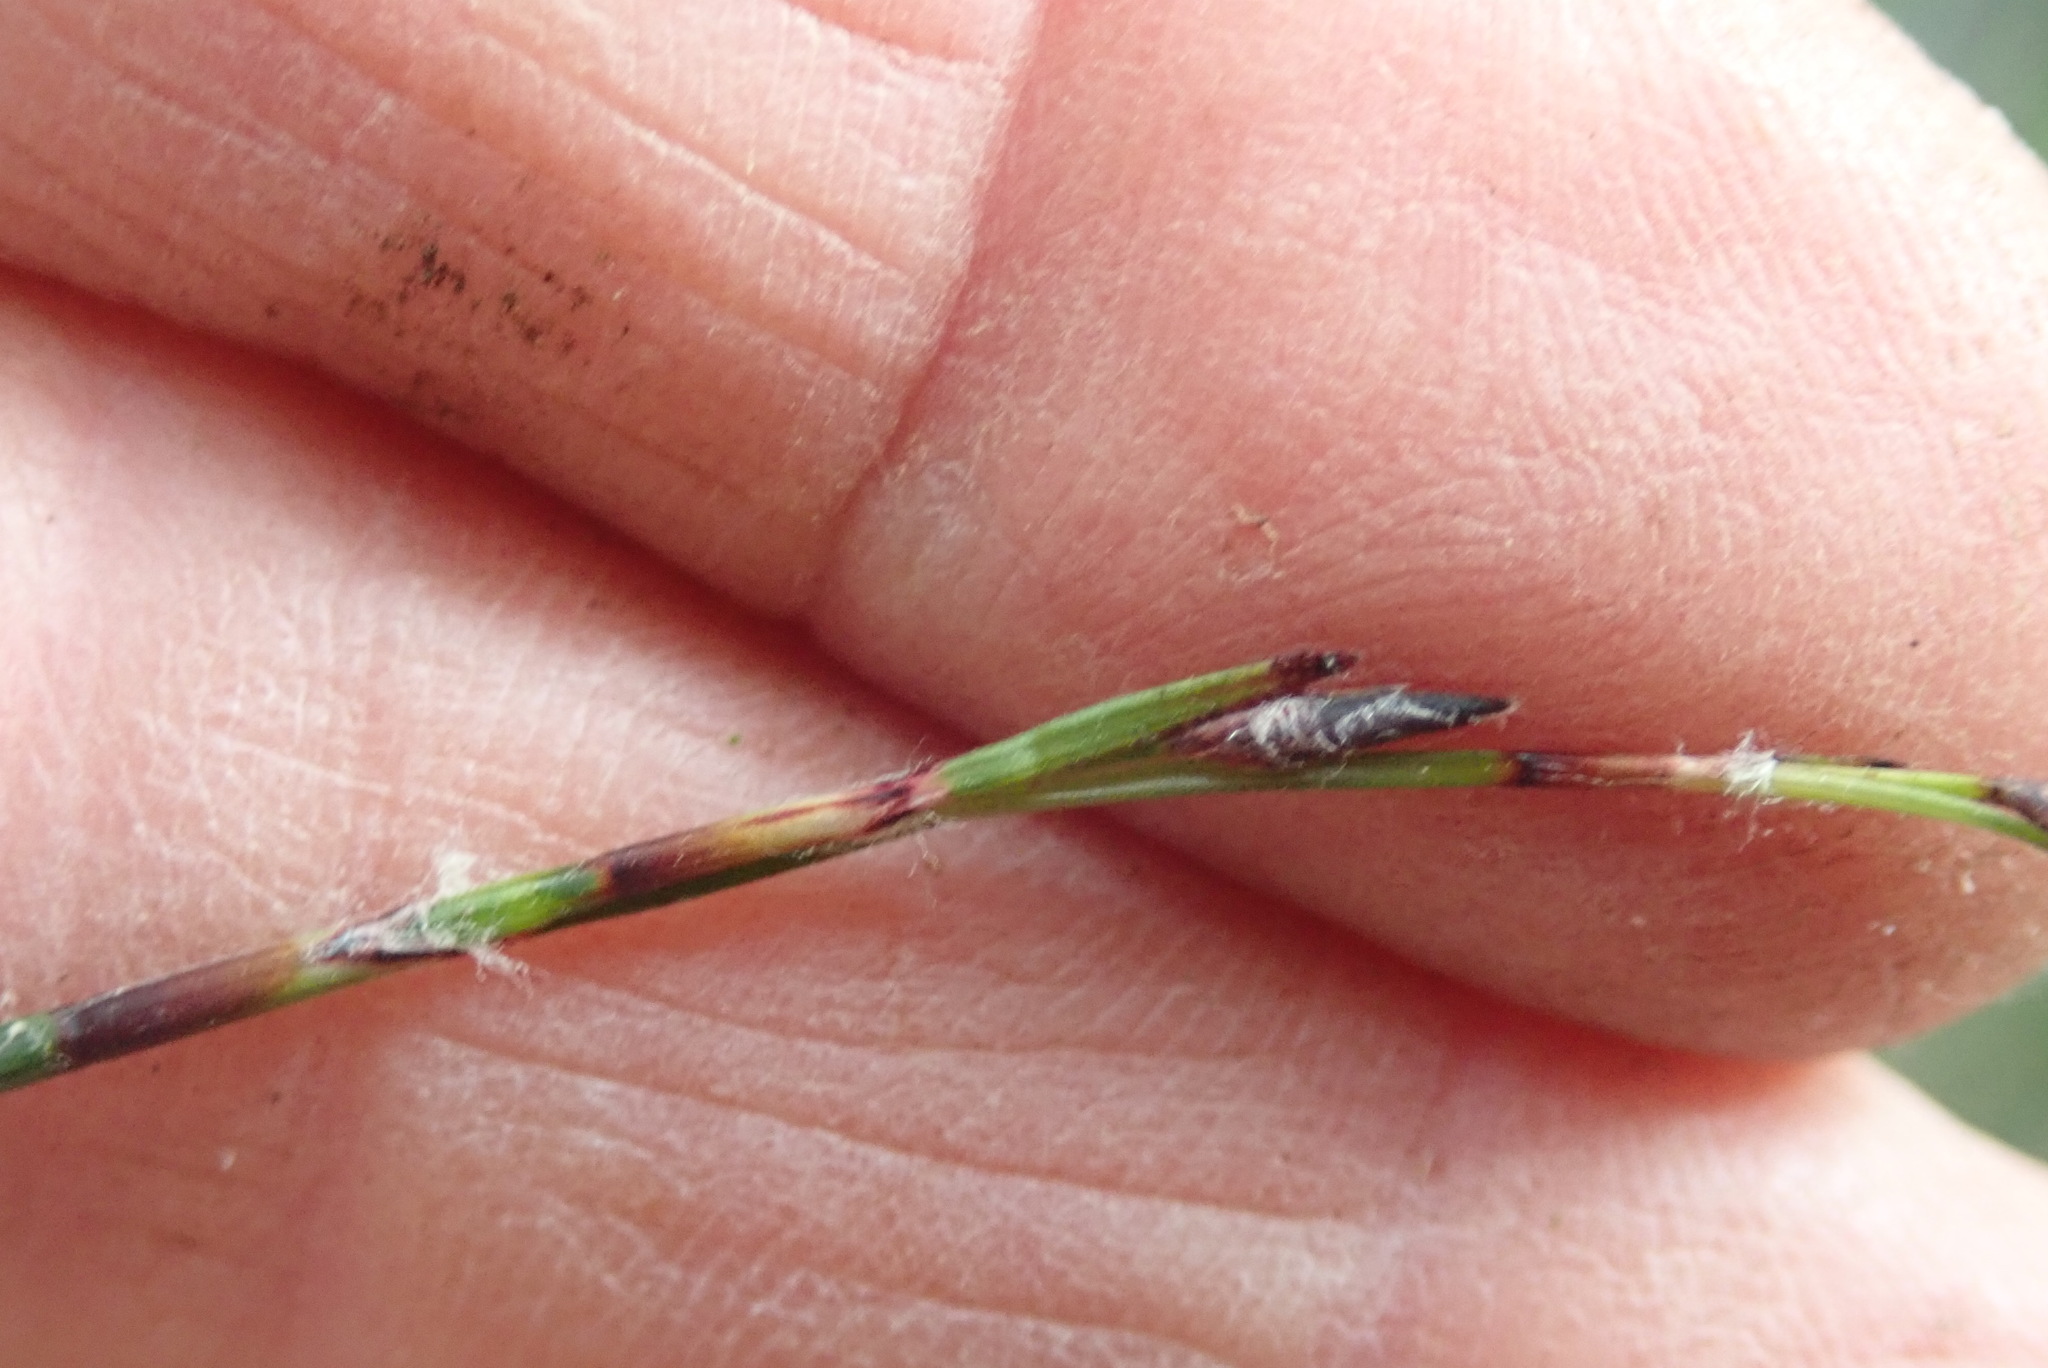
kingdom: Plantae
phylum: Tracheophyta
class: Liliopsida
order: Poales
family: Cyperaceae
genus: Schoenus
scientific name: Schoenus tendo
